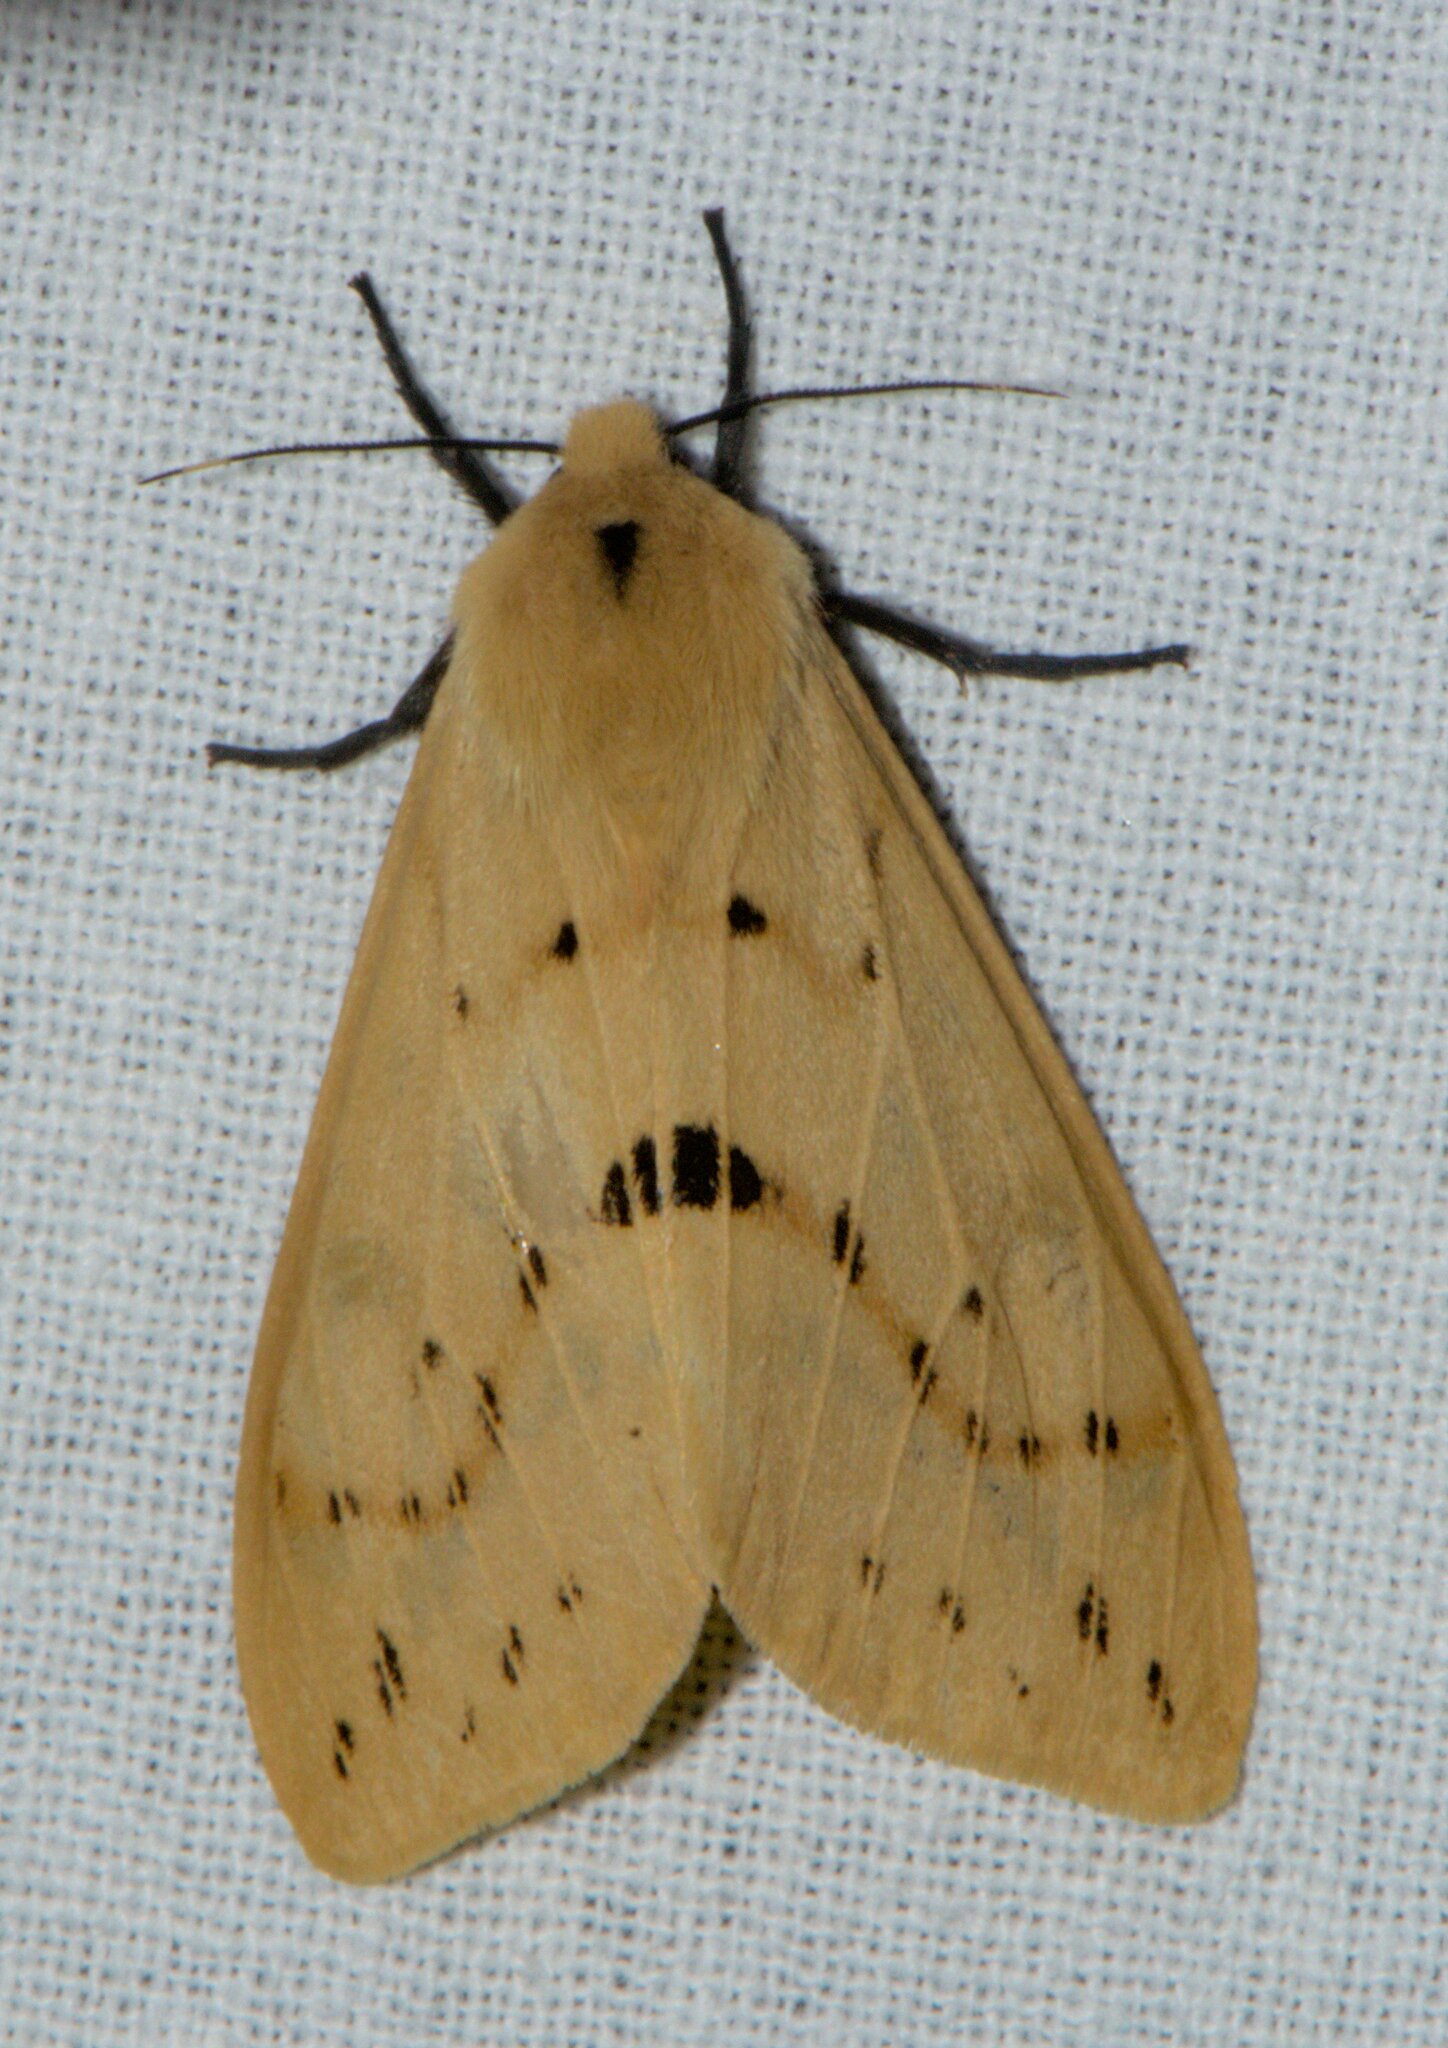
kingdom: Animalia
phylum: Arthropoda
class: Insecta
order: Lepidoptera
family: Erebidae
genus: Spilarctia
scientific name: Spilarctia lutea
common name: Buff ermine
